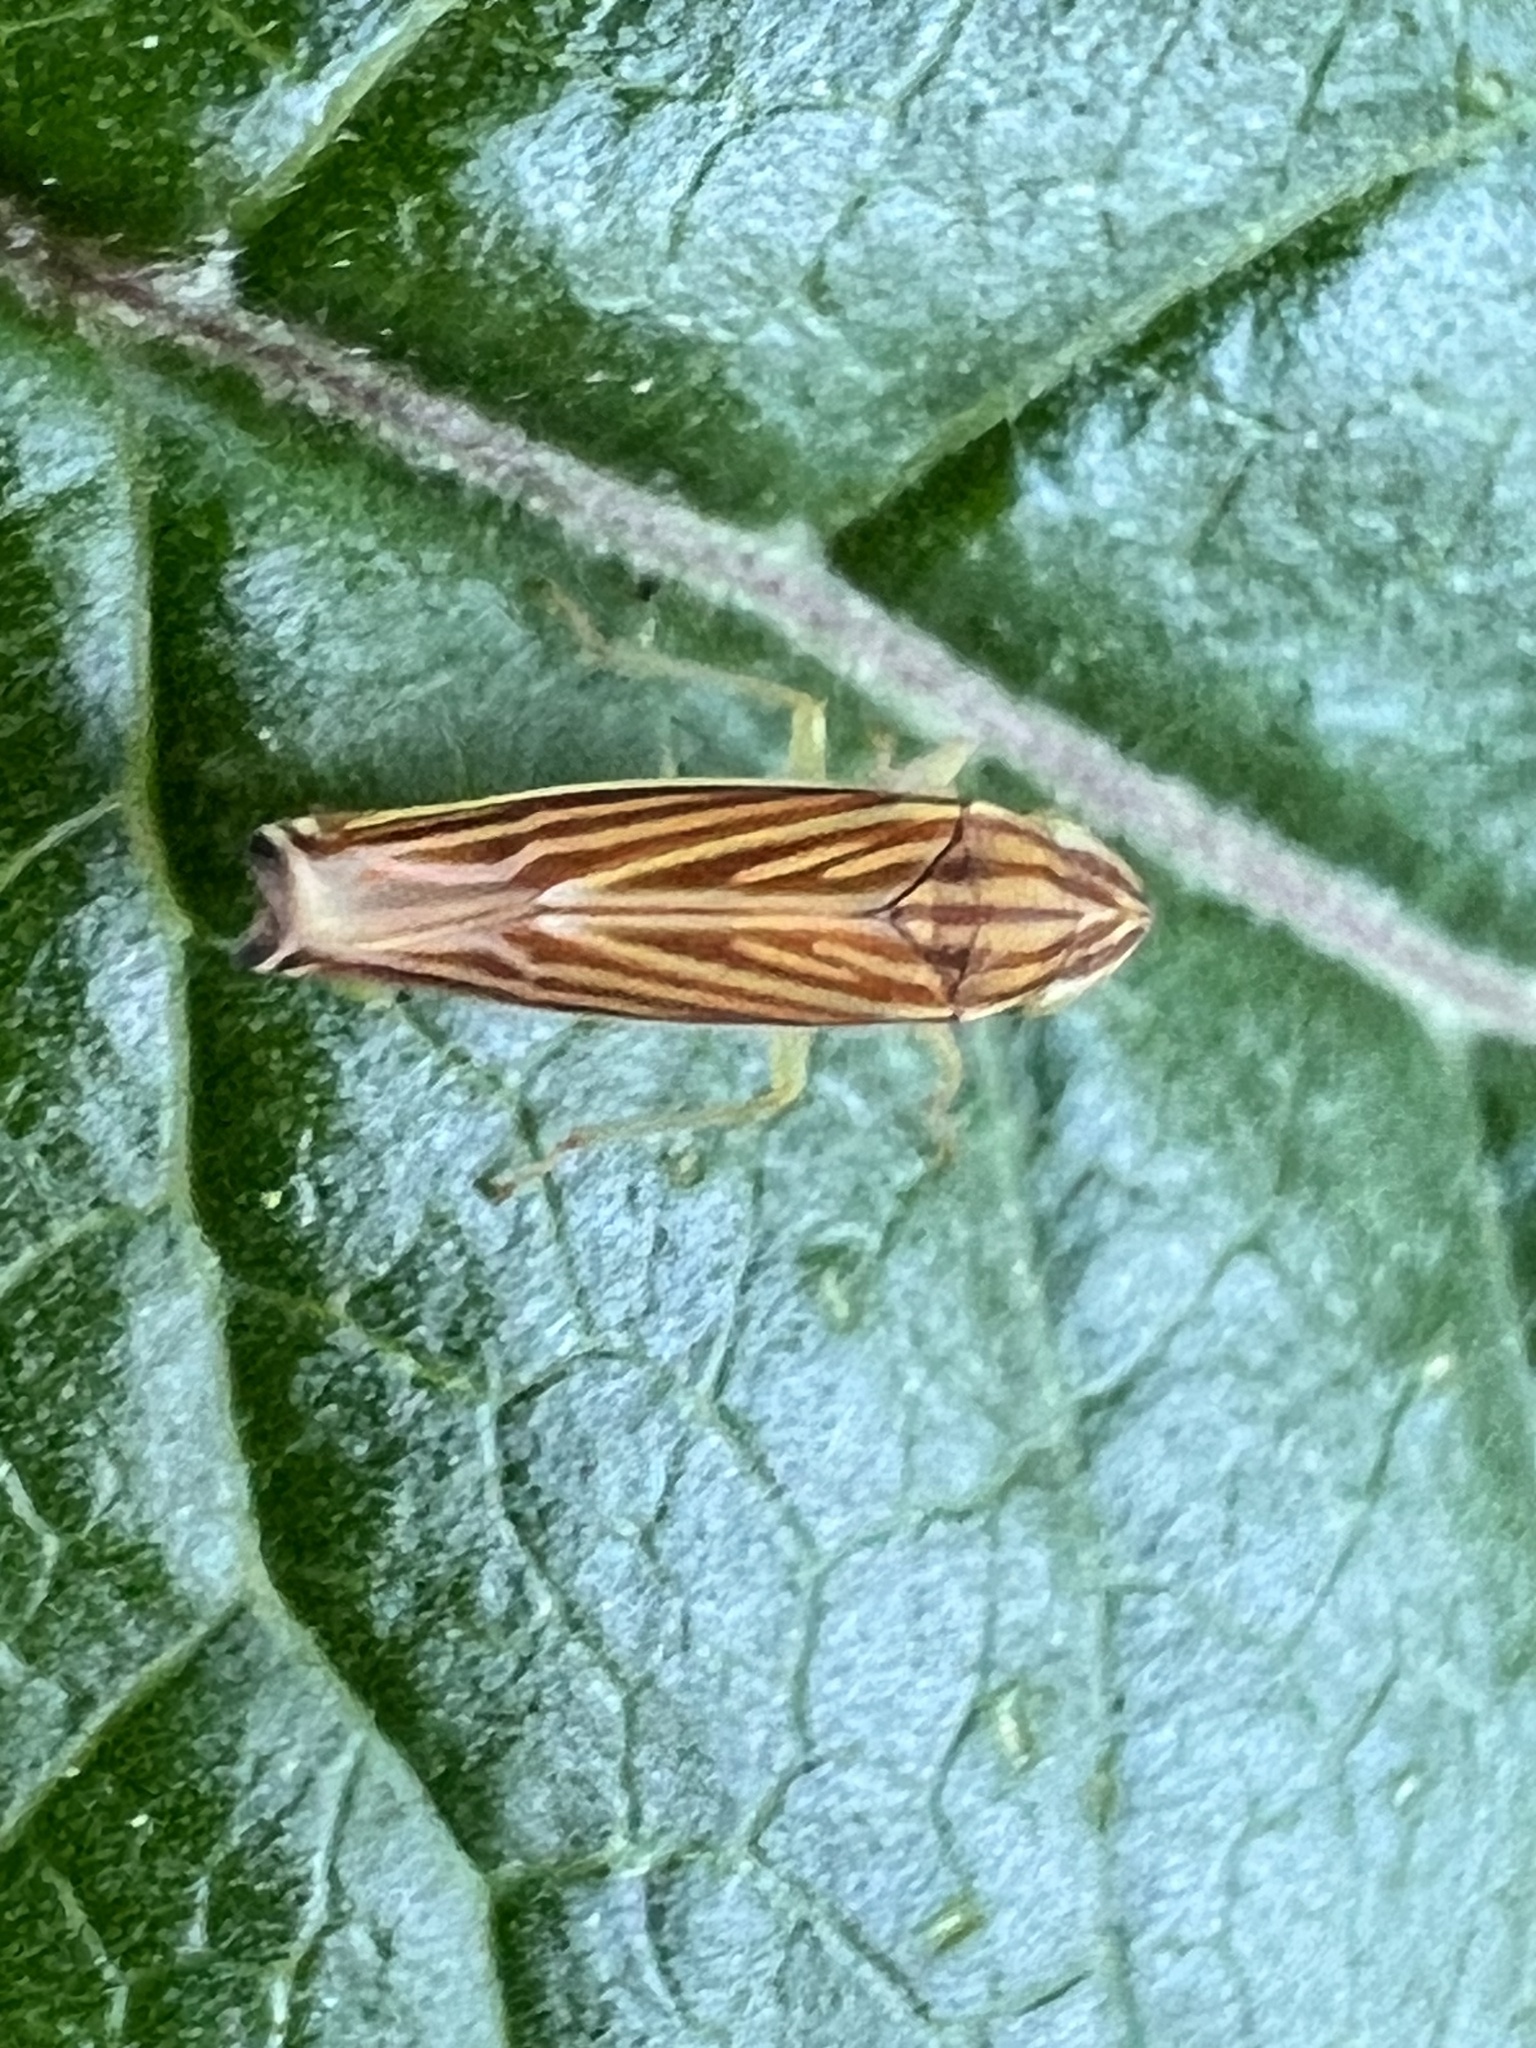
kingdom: Animalia
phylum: Arthropoda
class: Insecta
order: Hemiptera
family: Cicadellidae
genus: Sibovia
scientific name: Sibovia occatoria
